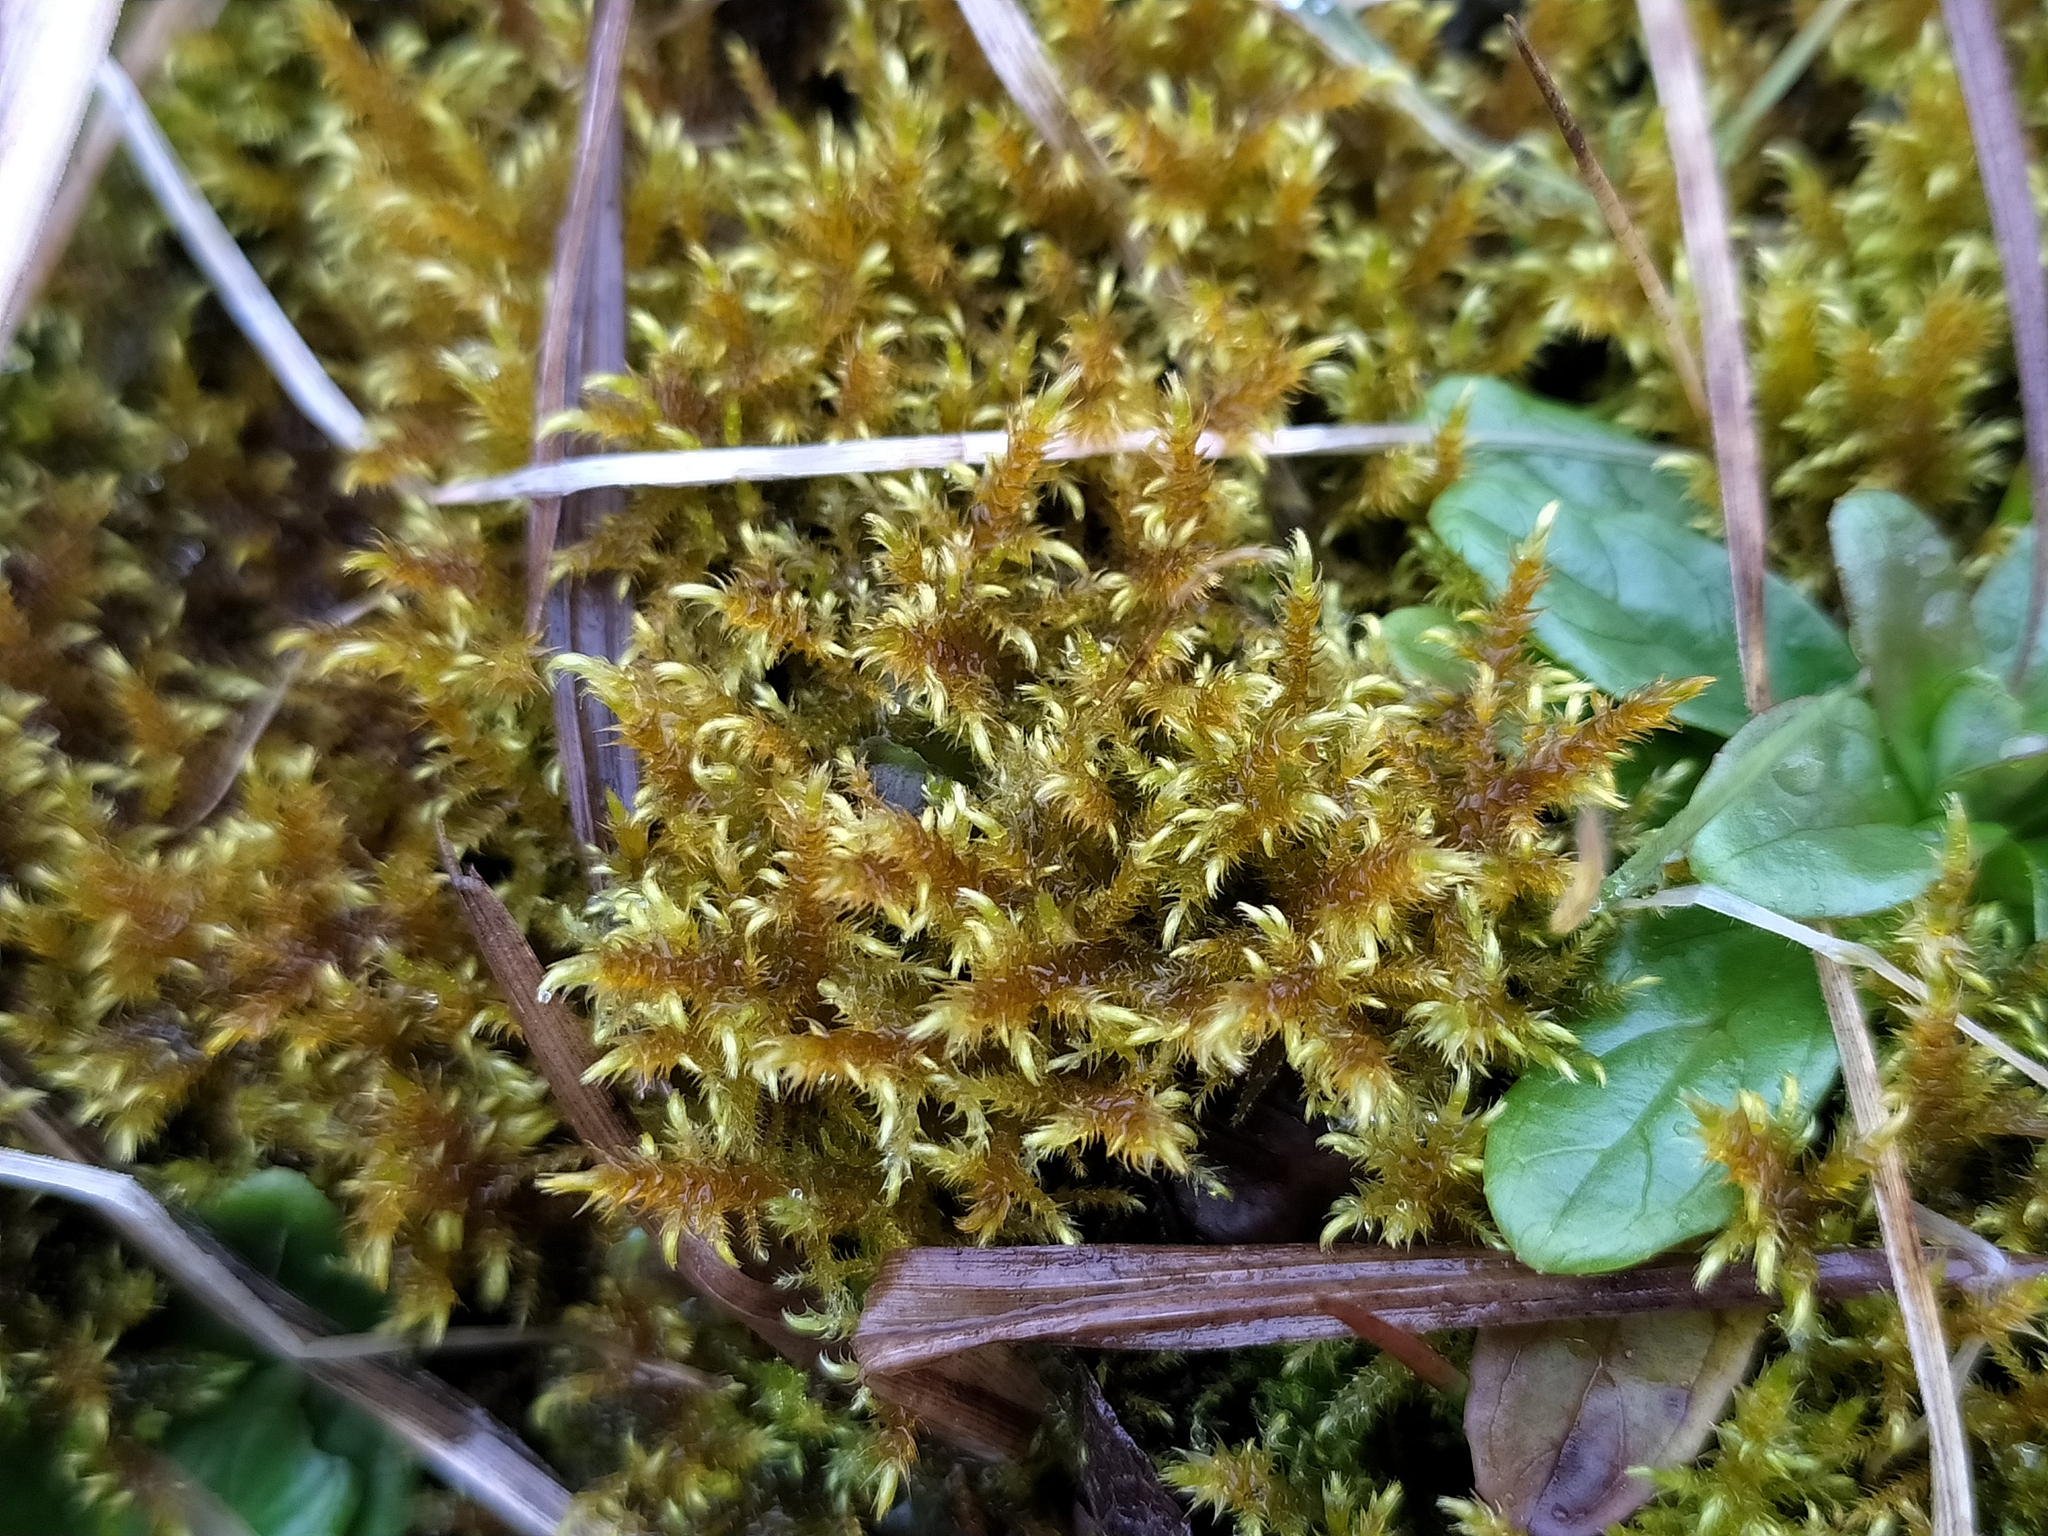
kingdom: Plantae
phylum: Bryophyta
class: Bryopsida
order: Hypnales
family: Amblystegiaceae
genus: Cratoneuron
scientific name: Cratoneuron filicinum
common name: Fern-leaved hook moss
